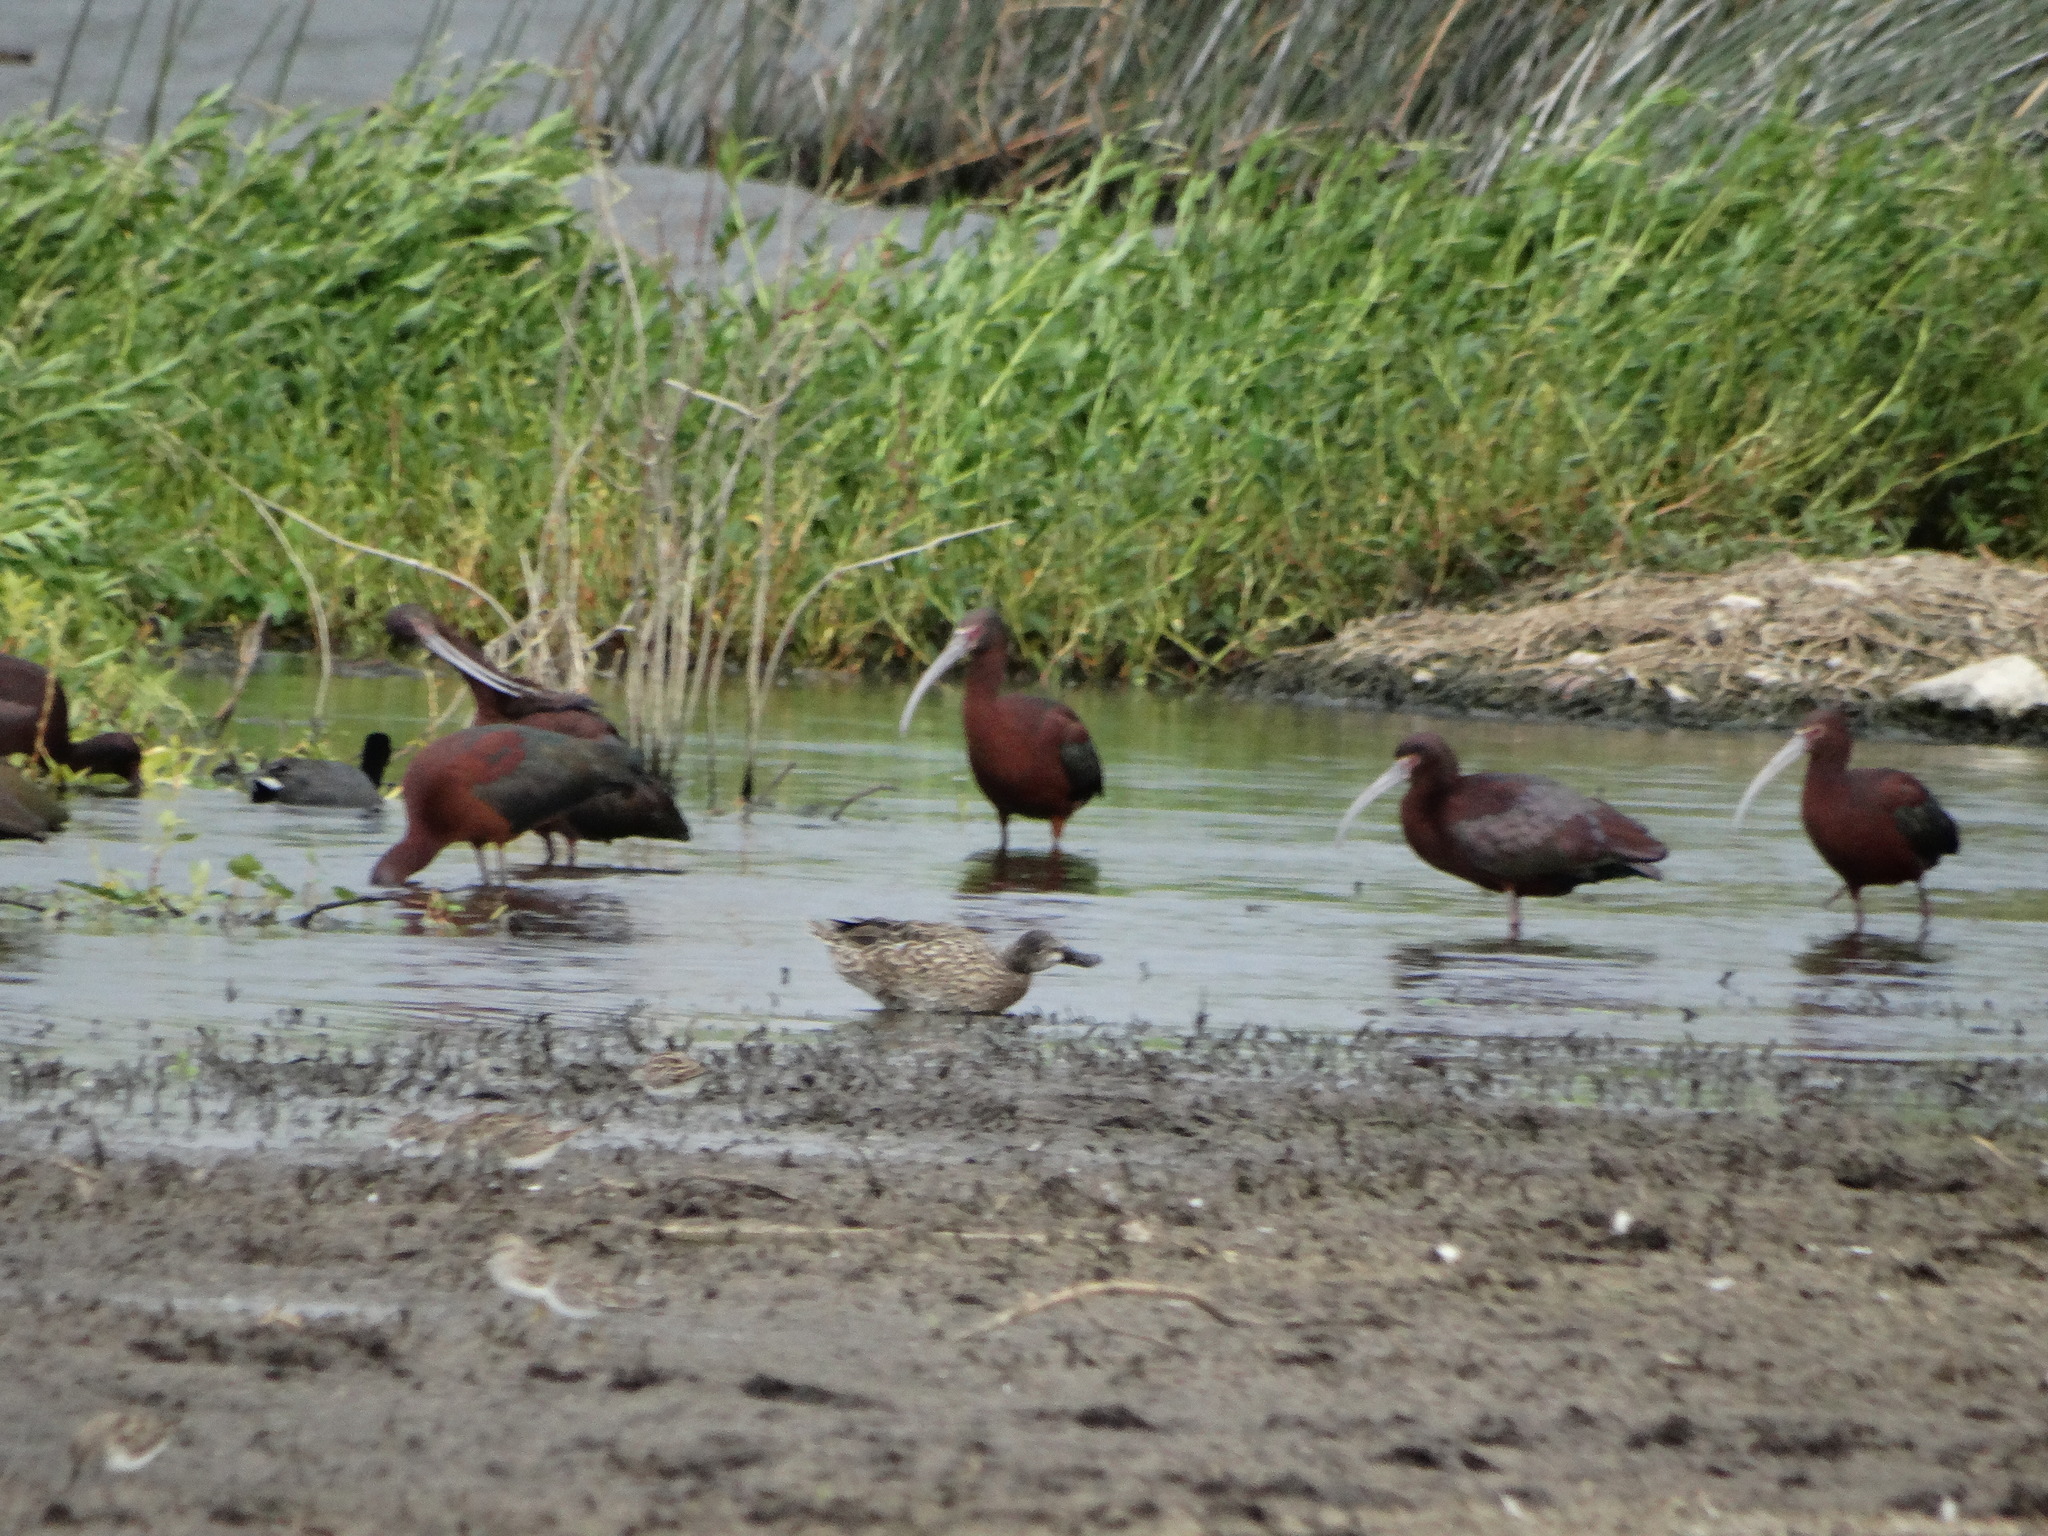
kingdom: Animalia
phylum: Chordata
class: Aves
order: Pelecaniformes
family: Threskiornithidae
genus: Plegadis
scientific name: Plegadis chihi
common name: White-faced ibis
